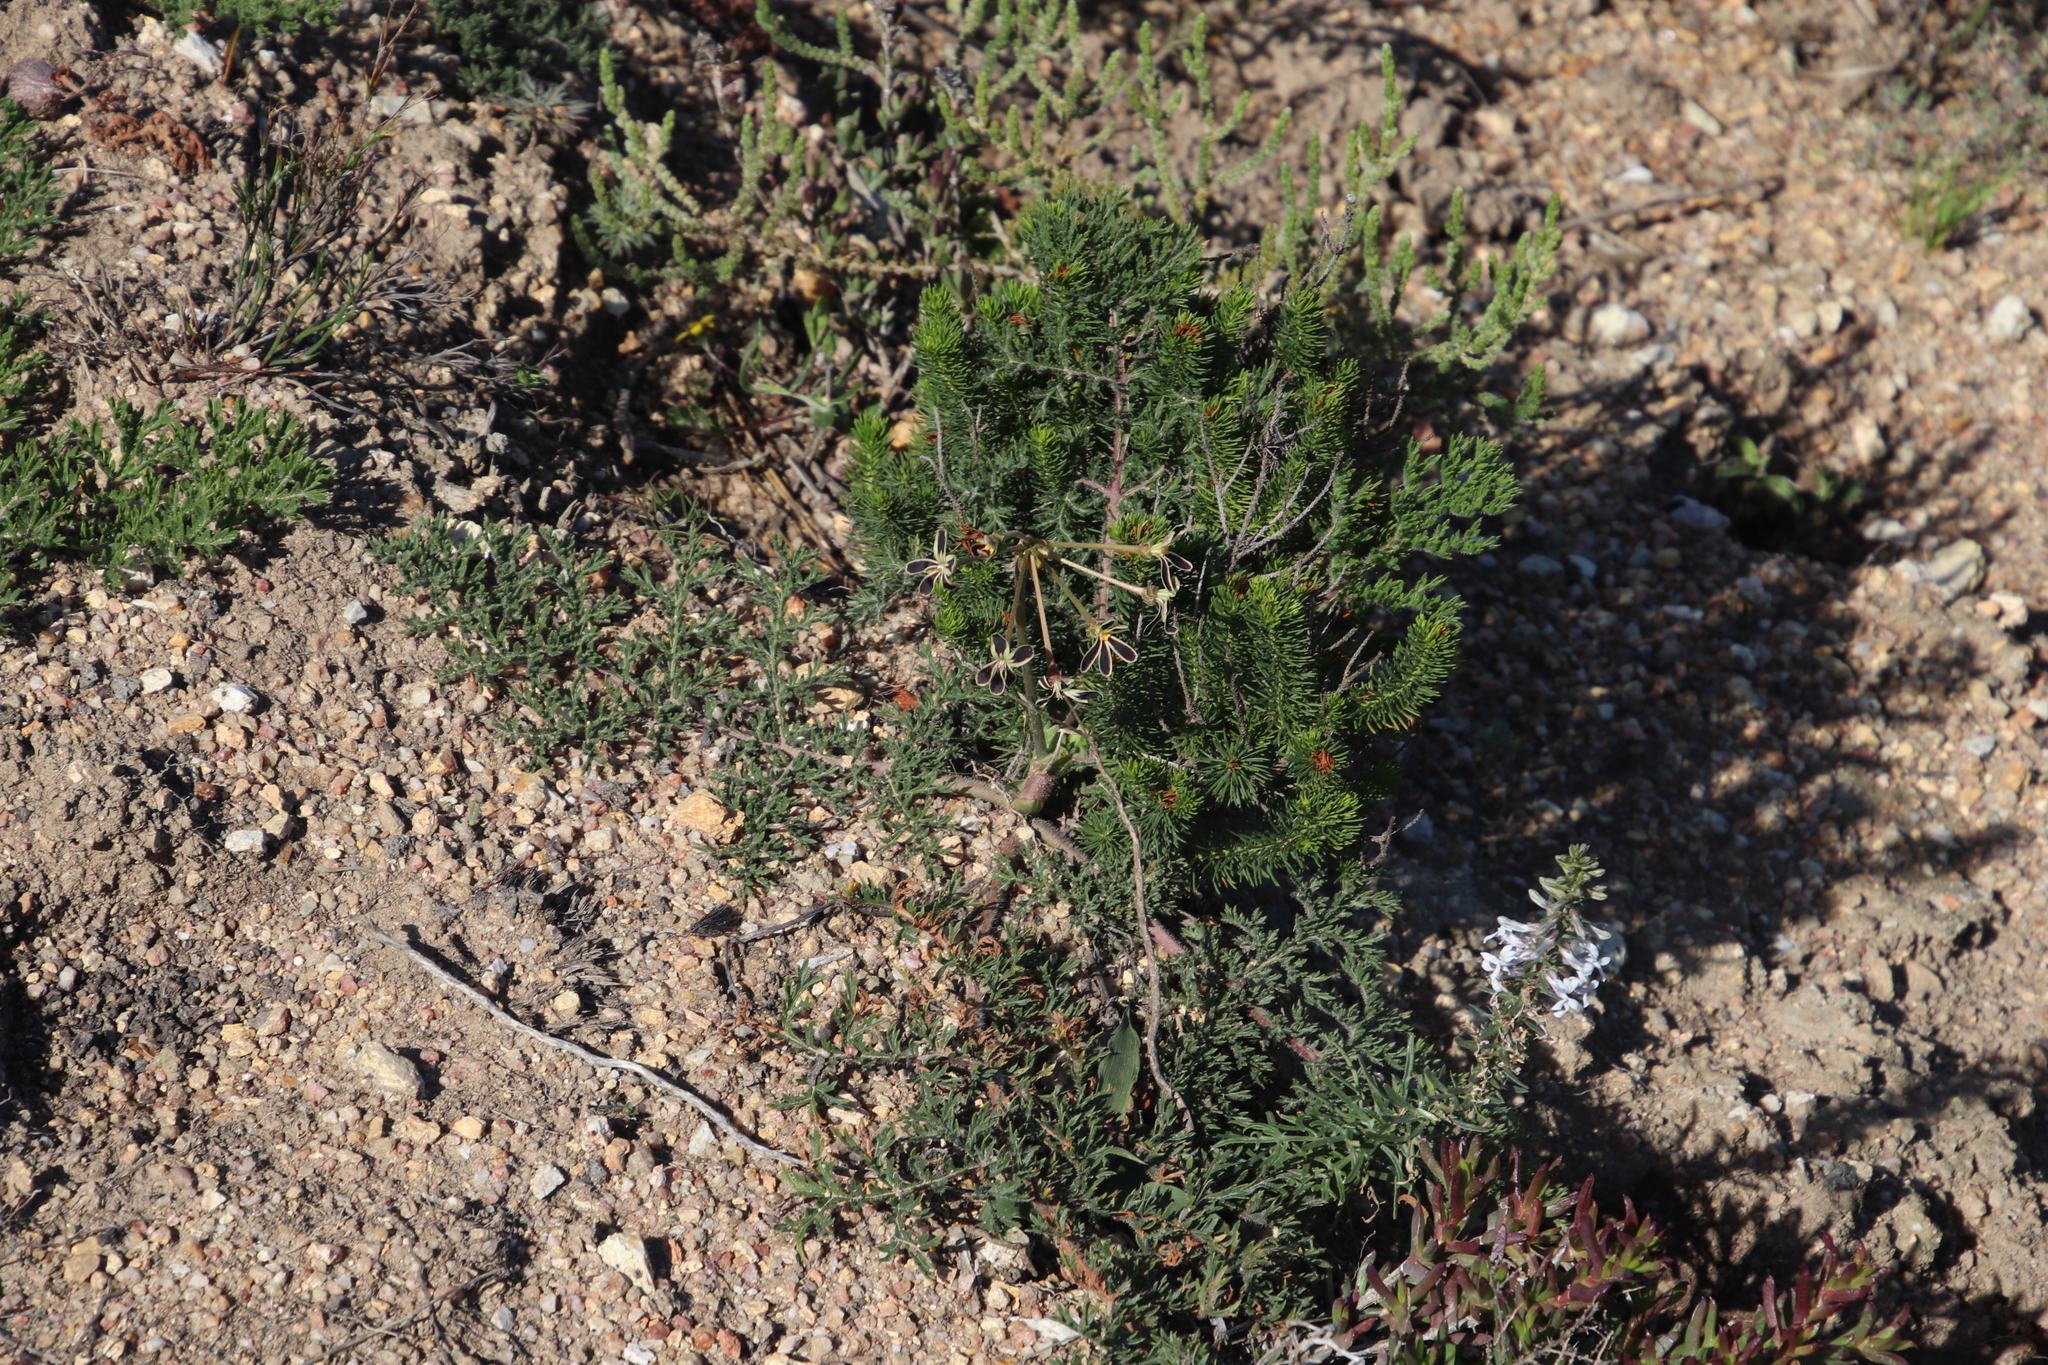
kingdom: Plantae
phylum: Tracheophyta
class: Magnoliopsida
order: Geraniales
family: Geraniaceae
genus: Pelargonium
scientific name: Pelargonium triste
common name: Night-scent pelargonium
